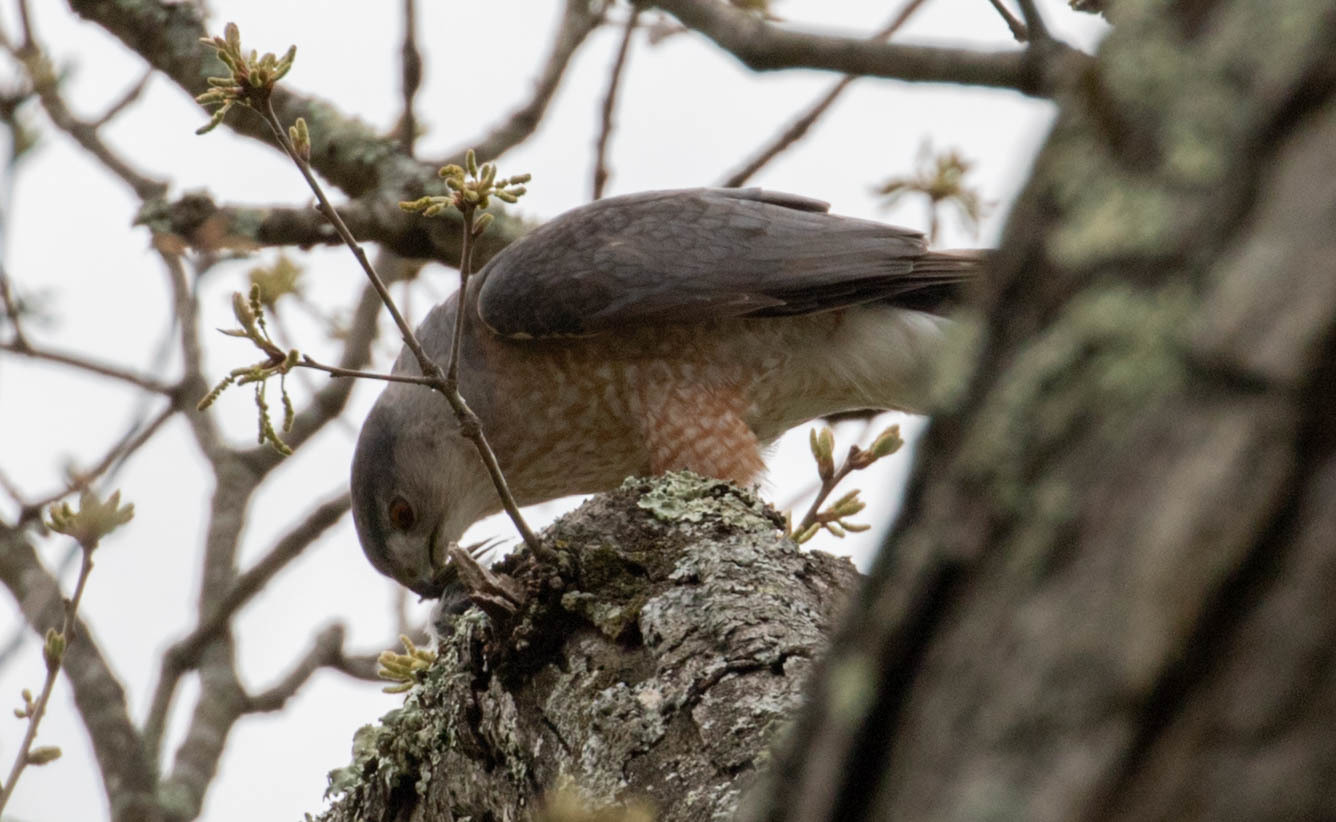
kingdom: Animalia
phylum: Chordata
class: Aves
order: Accipitriformes
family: Accipitridae
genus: Accipiter
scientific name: Accipiter cooperii
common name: Cooper's hawk
